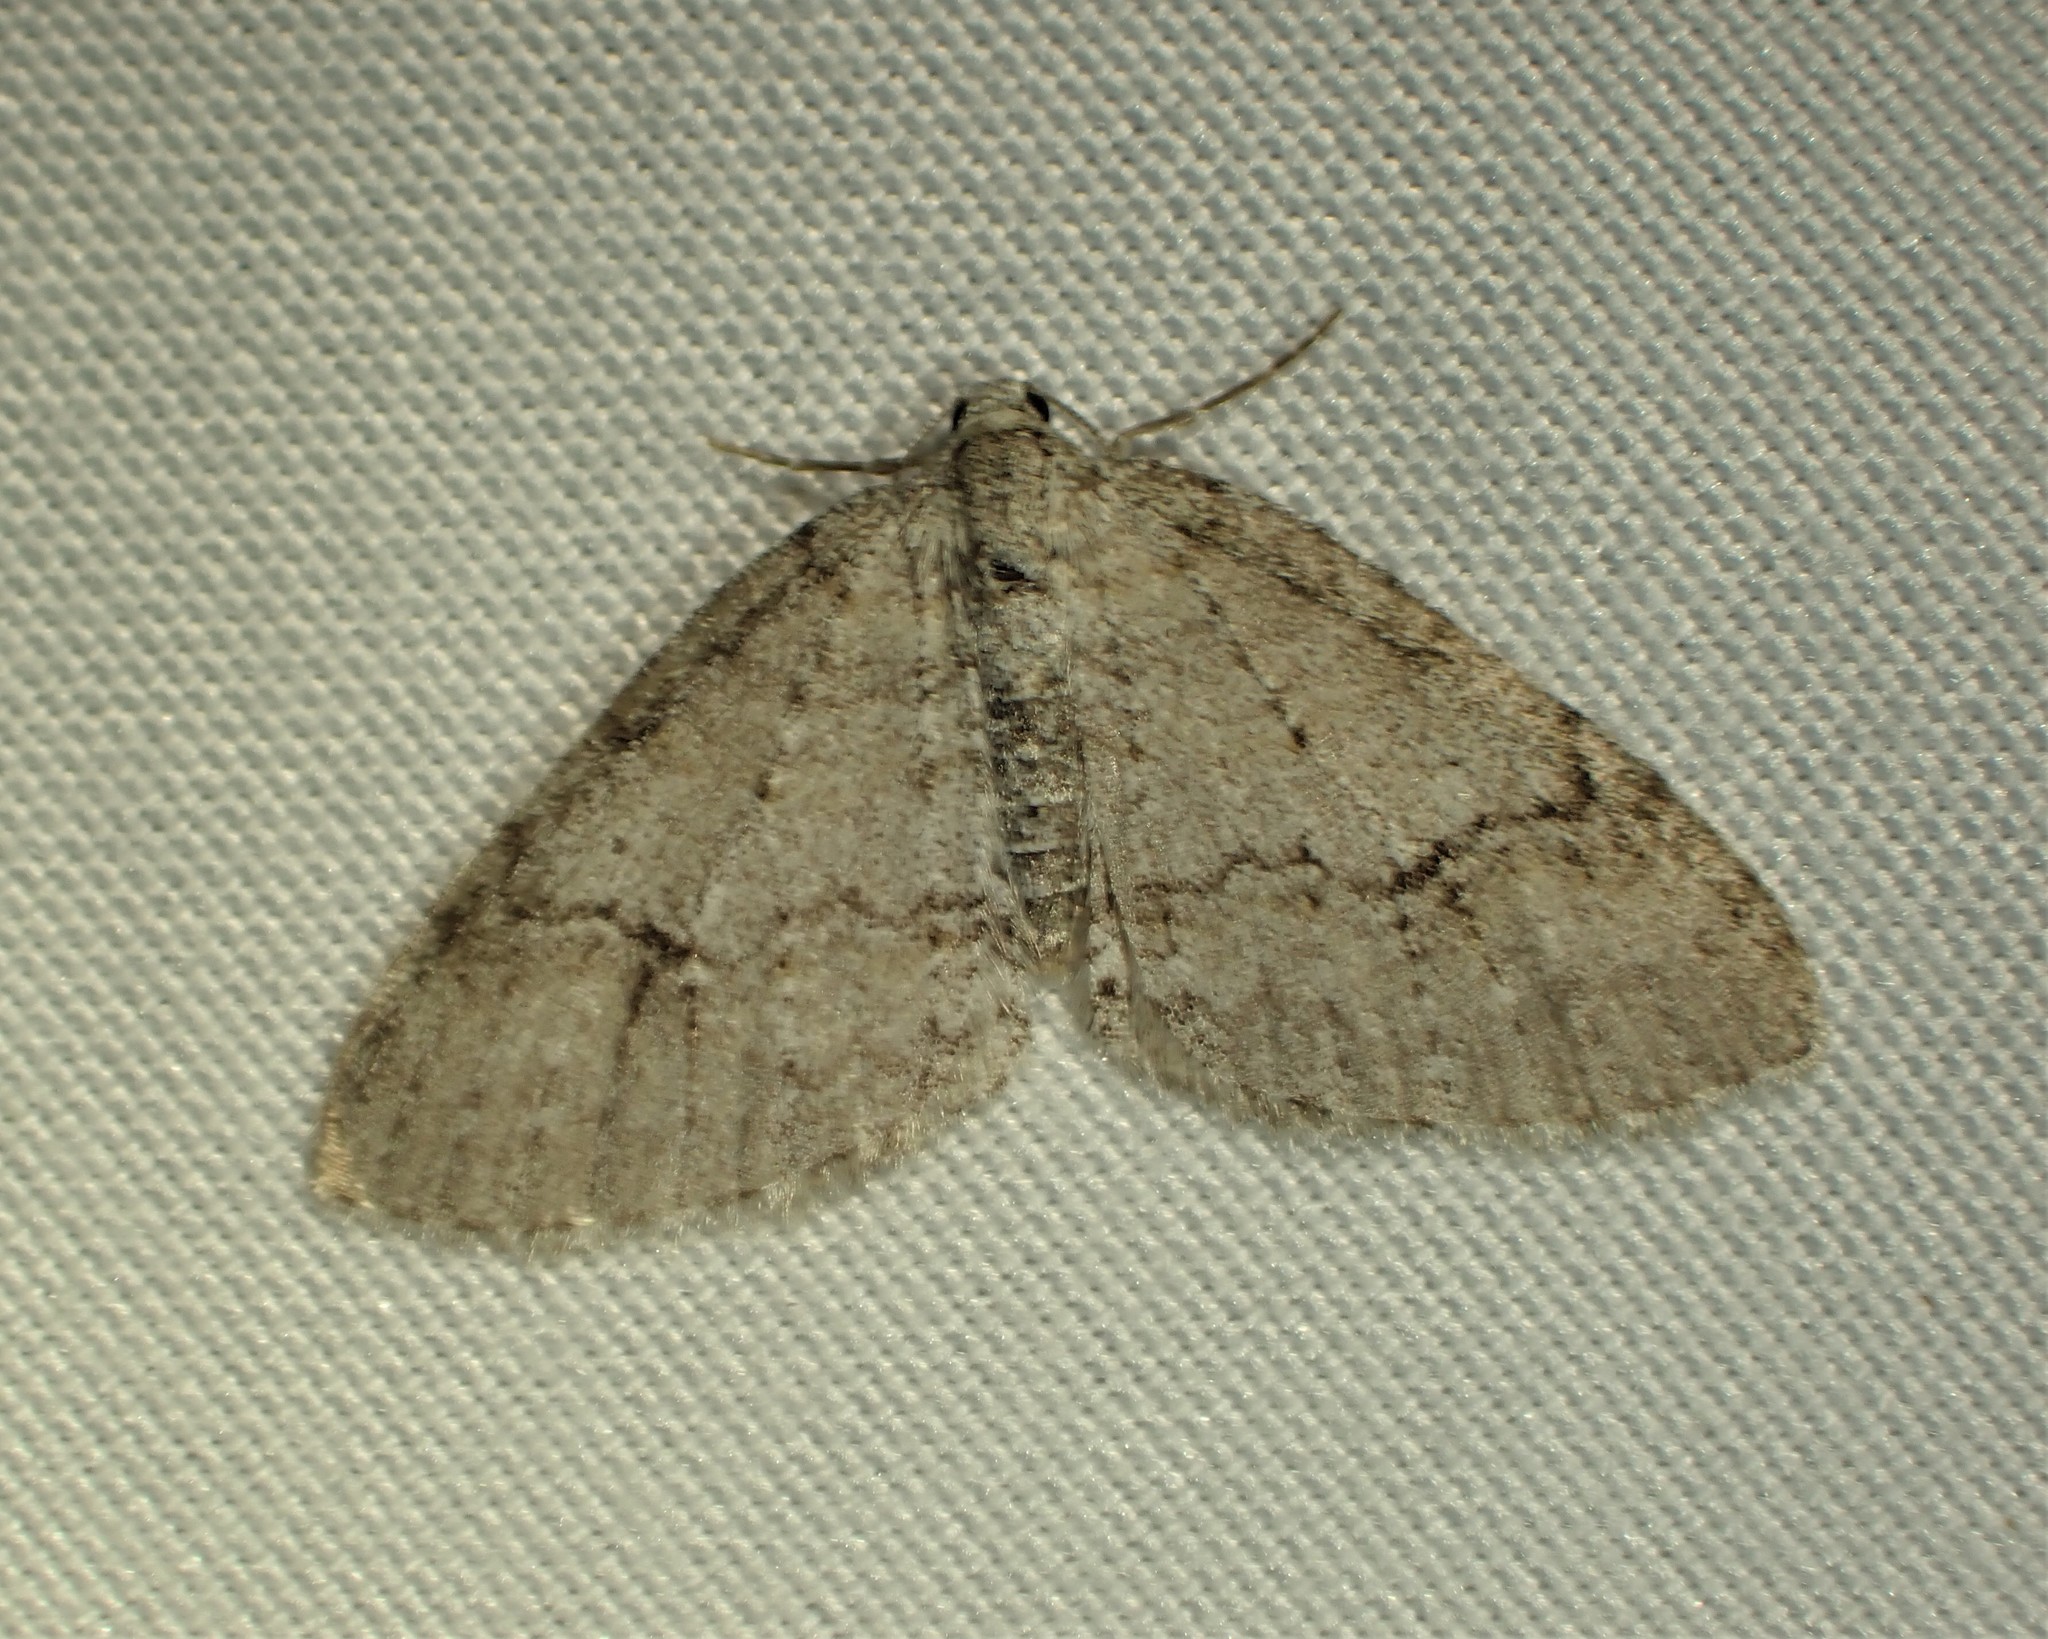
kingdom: Animalia
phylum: Arthropoda
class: Insecta
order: Lepidoptera
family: Geometridae
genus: Venusia
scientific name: Venusia comptaria
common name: Brown-shaded carpet
